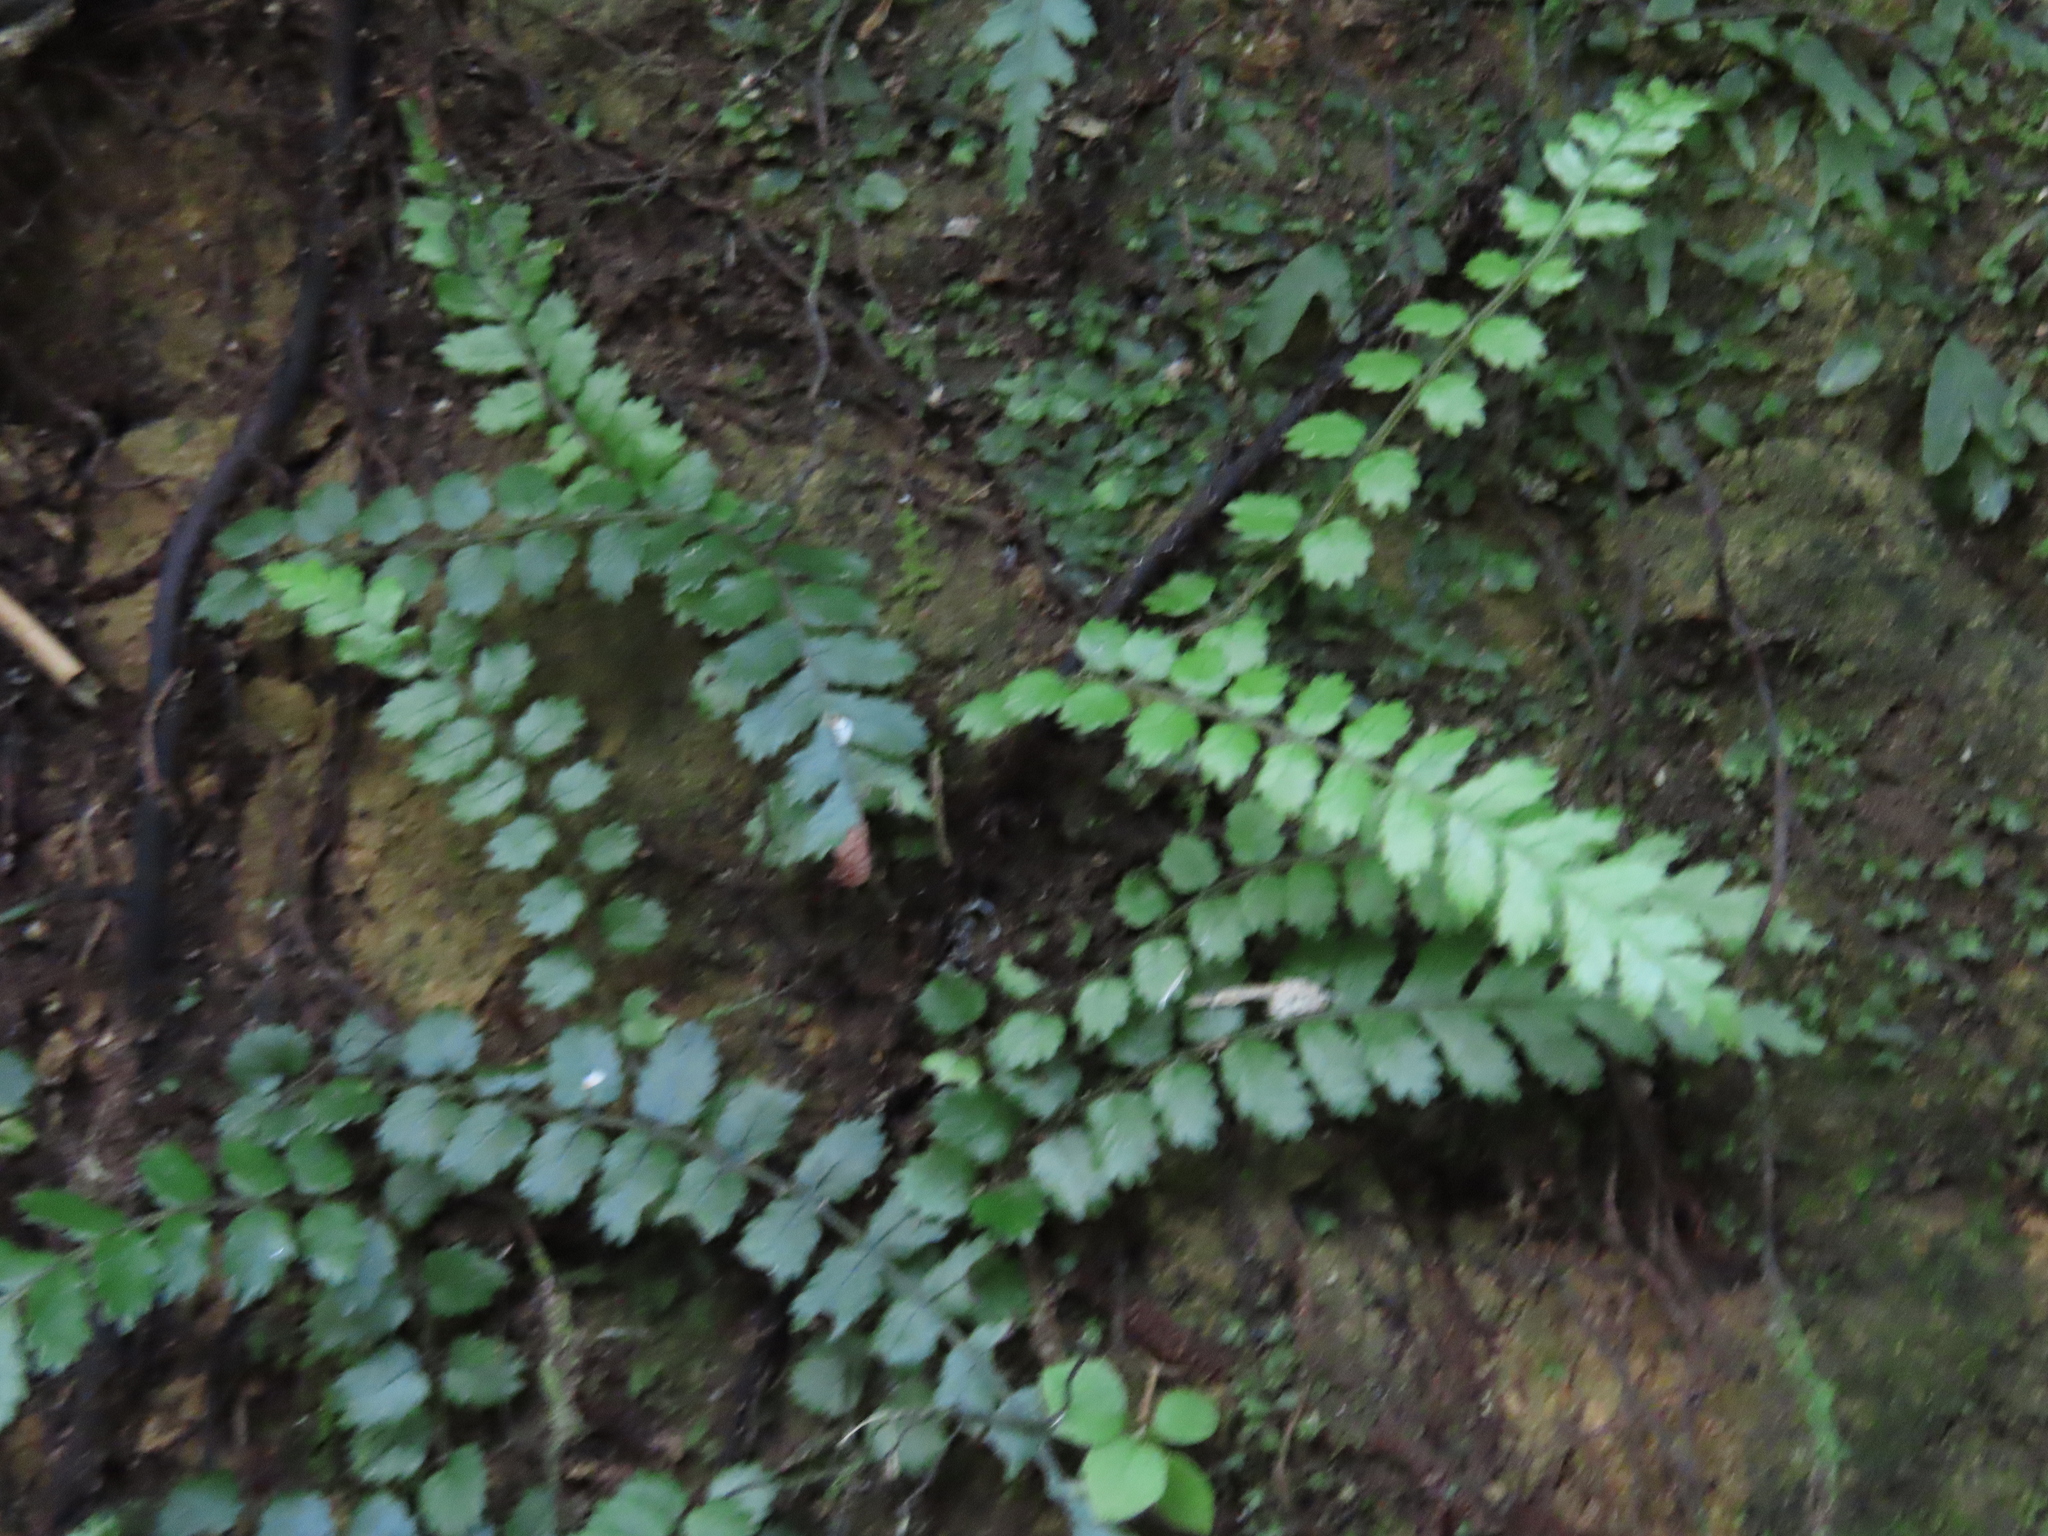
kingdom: Plantae
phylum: Tracheophyta
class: Polypodiopsida
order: Polypodiales
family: Blechnaceae
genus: Icarus
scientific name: Icarus filiformis
